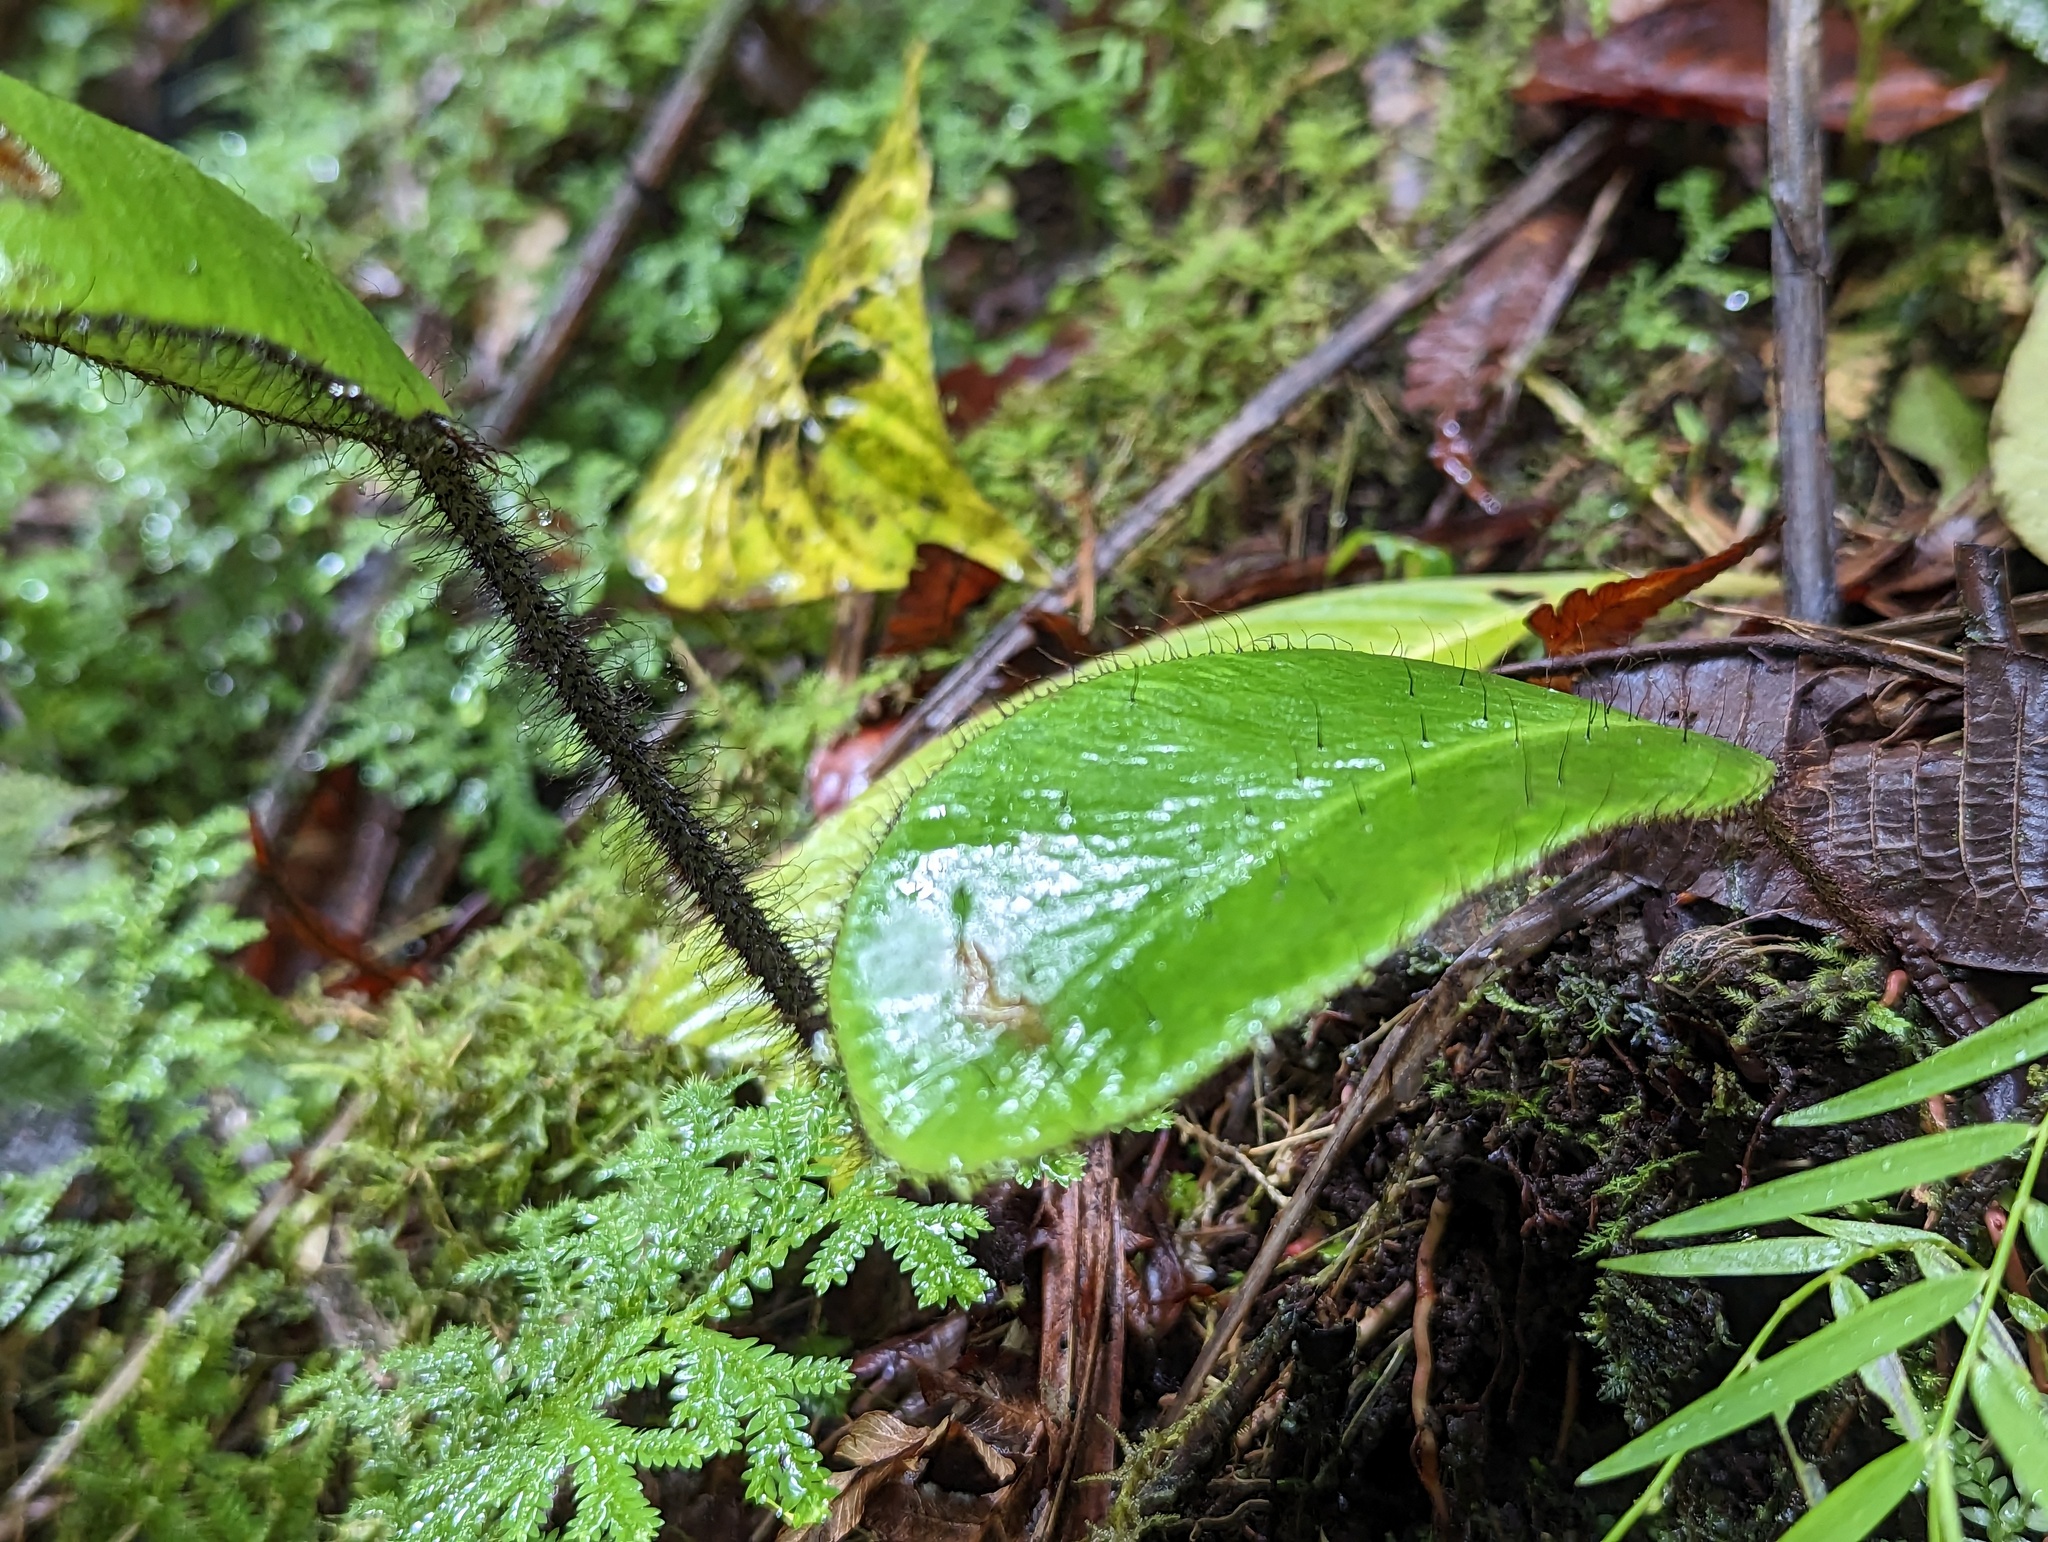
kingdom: Plantae
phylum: Tracheophyta
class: Polypodiopsida
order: Polypodiales
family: Dryopteridaceae
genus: Elaphoglossum
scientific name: Elaphoglossum crinitum
